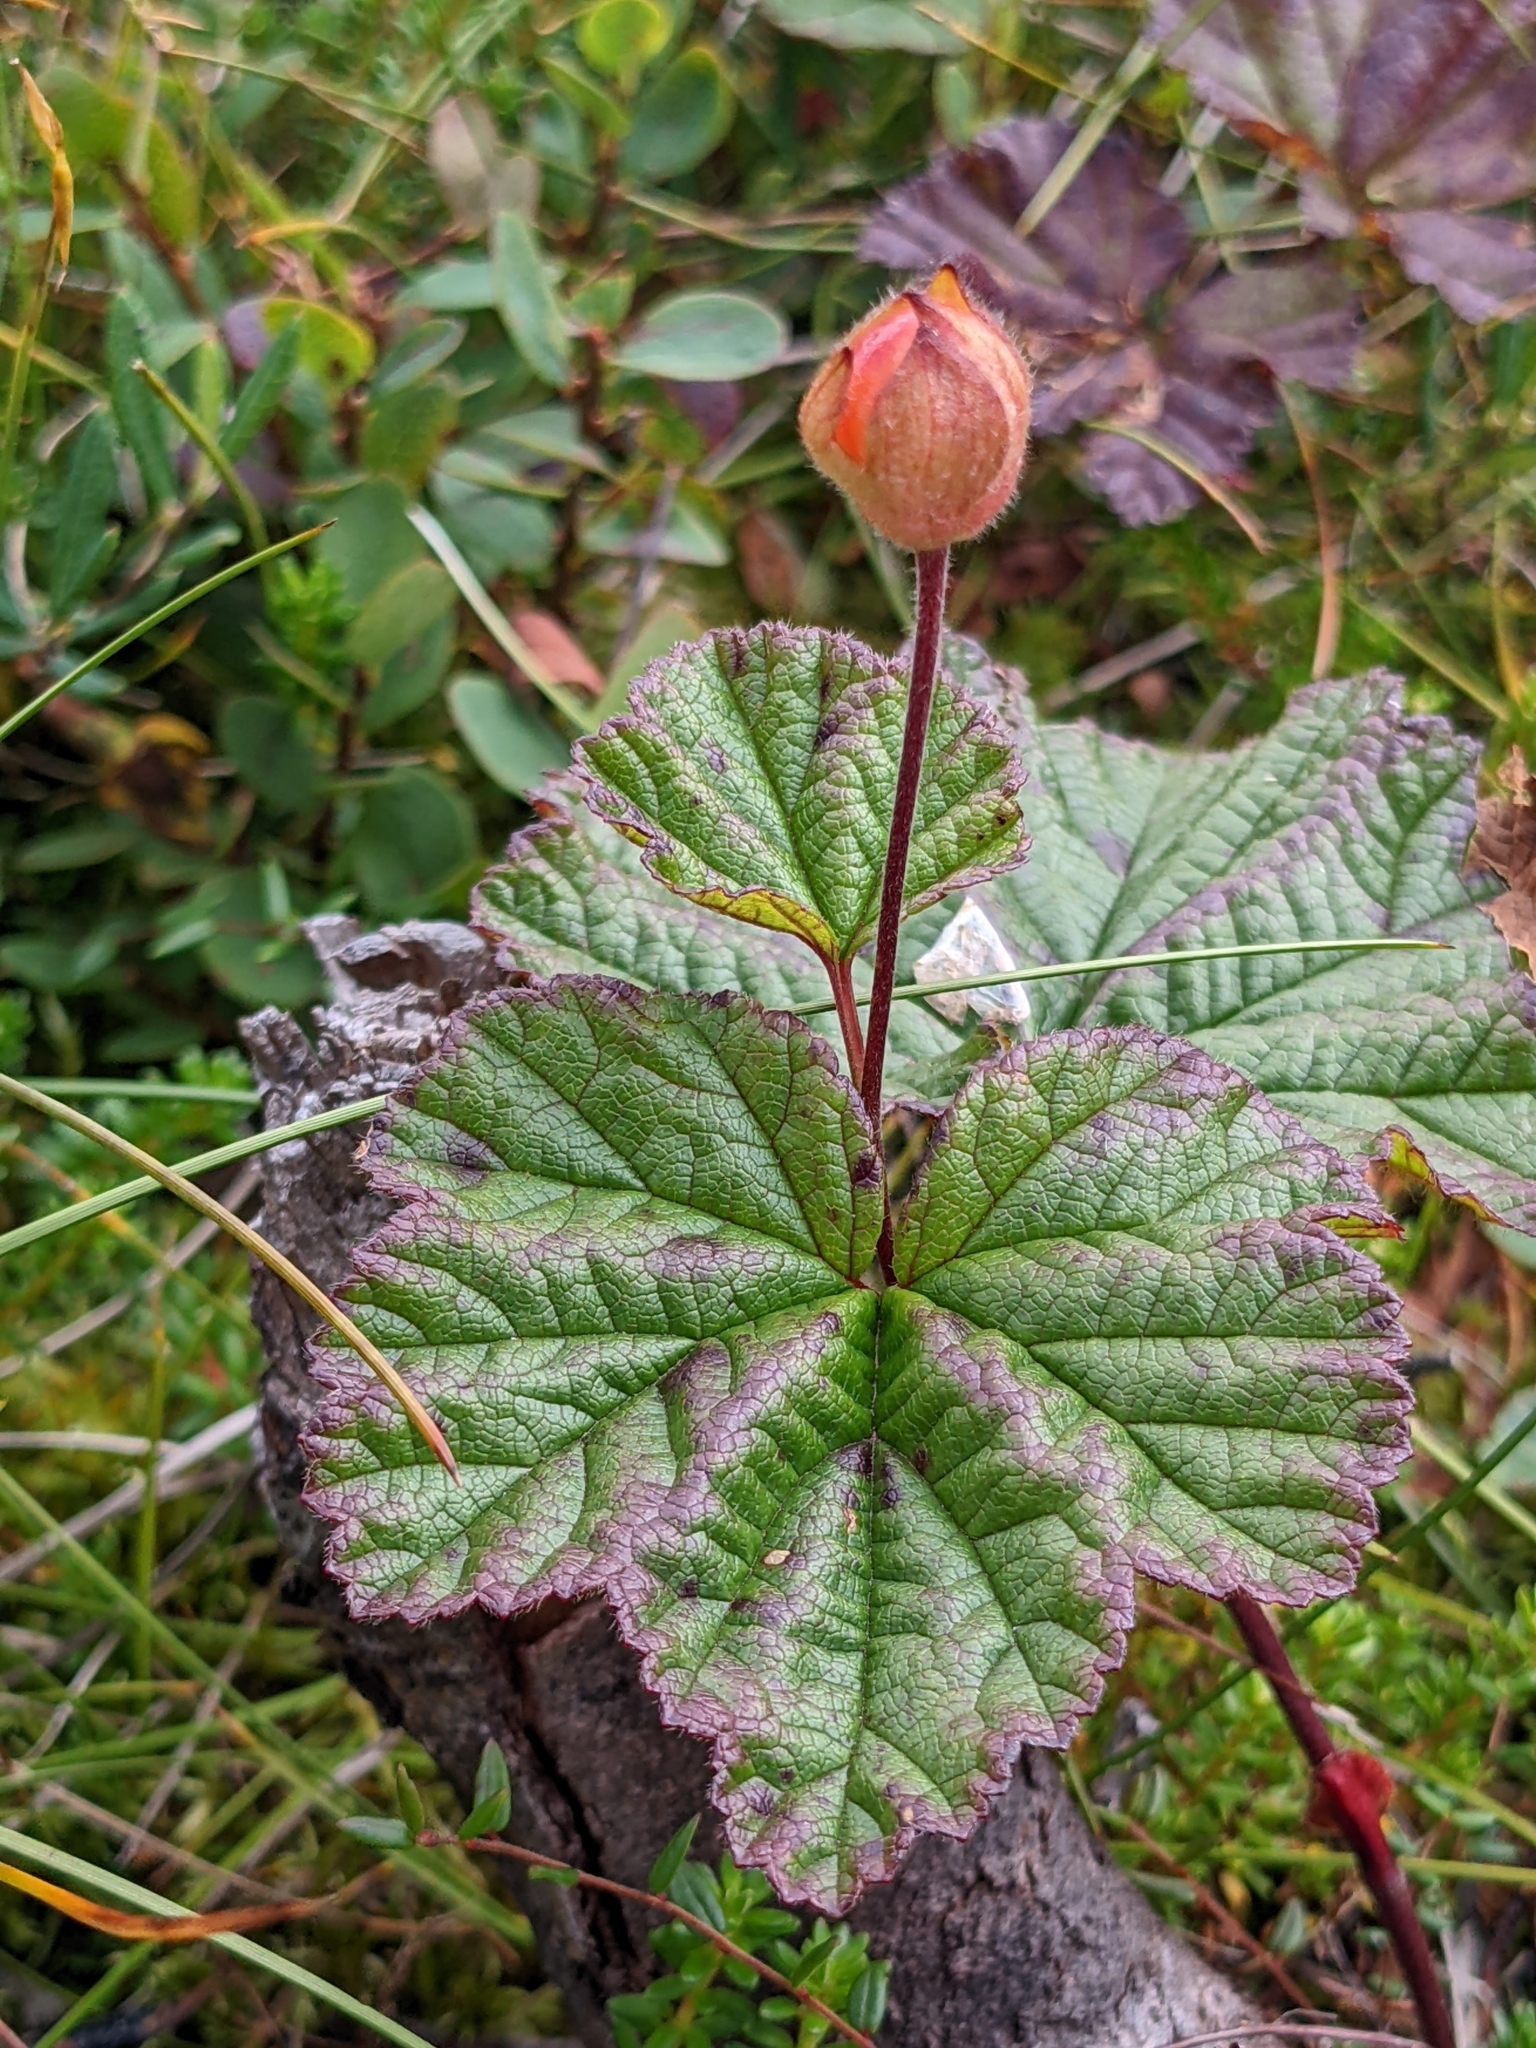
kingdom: Plantae
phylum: Tracheophyta
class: Magnoliopsida
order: Rosales
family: Rosaceae
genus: Rubus
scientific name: Rubus chamaemorus
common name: Cloudberry
